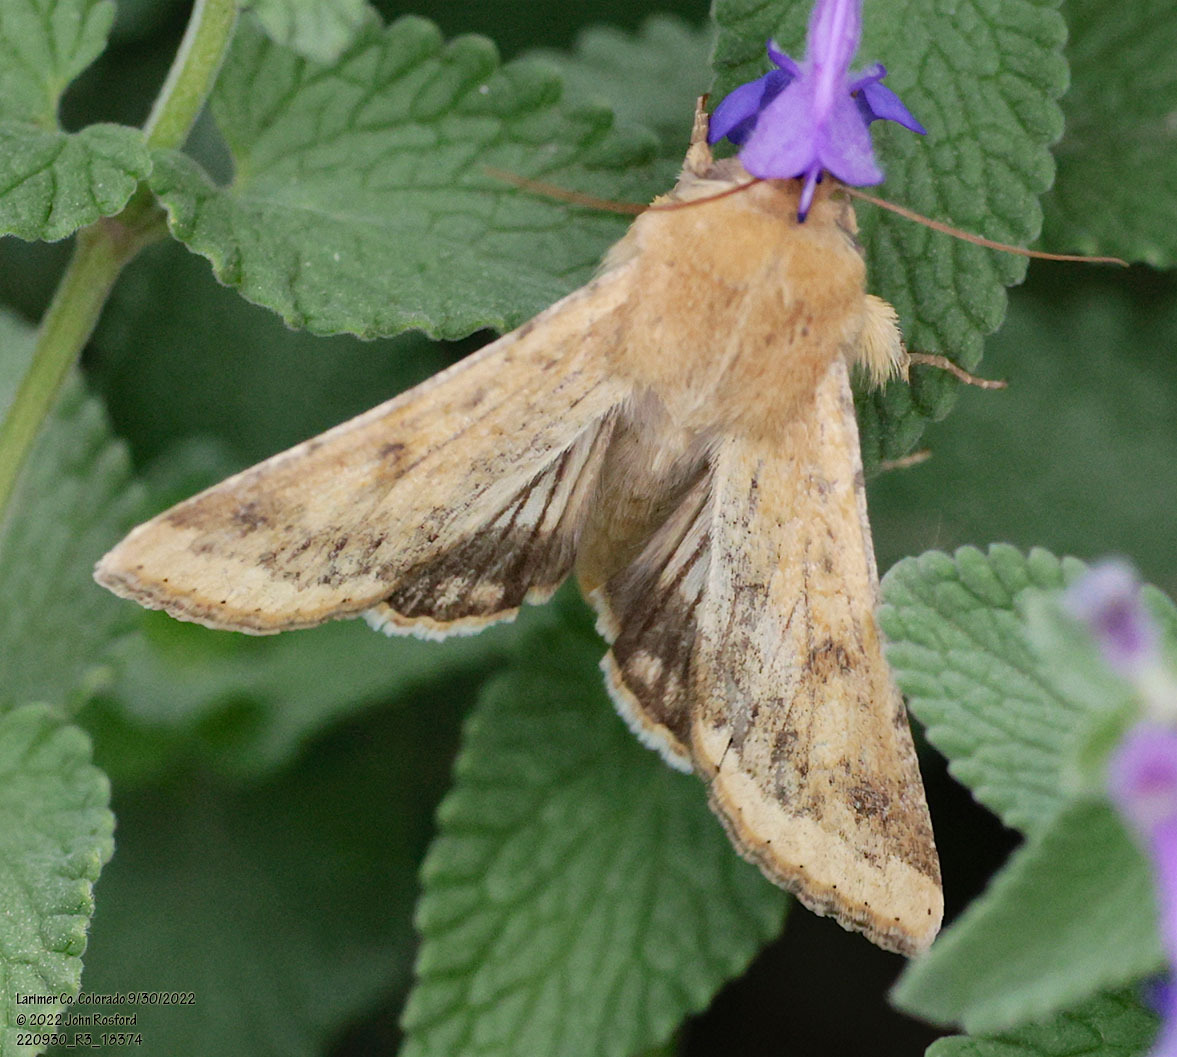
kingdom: Animalia
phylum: Arthropoda
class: Insecta
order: Lepidoptera
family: Noctuidae
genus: Helicoverpa
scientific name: Helicoverpa zea
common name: Bollworm
